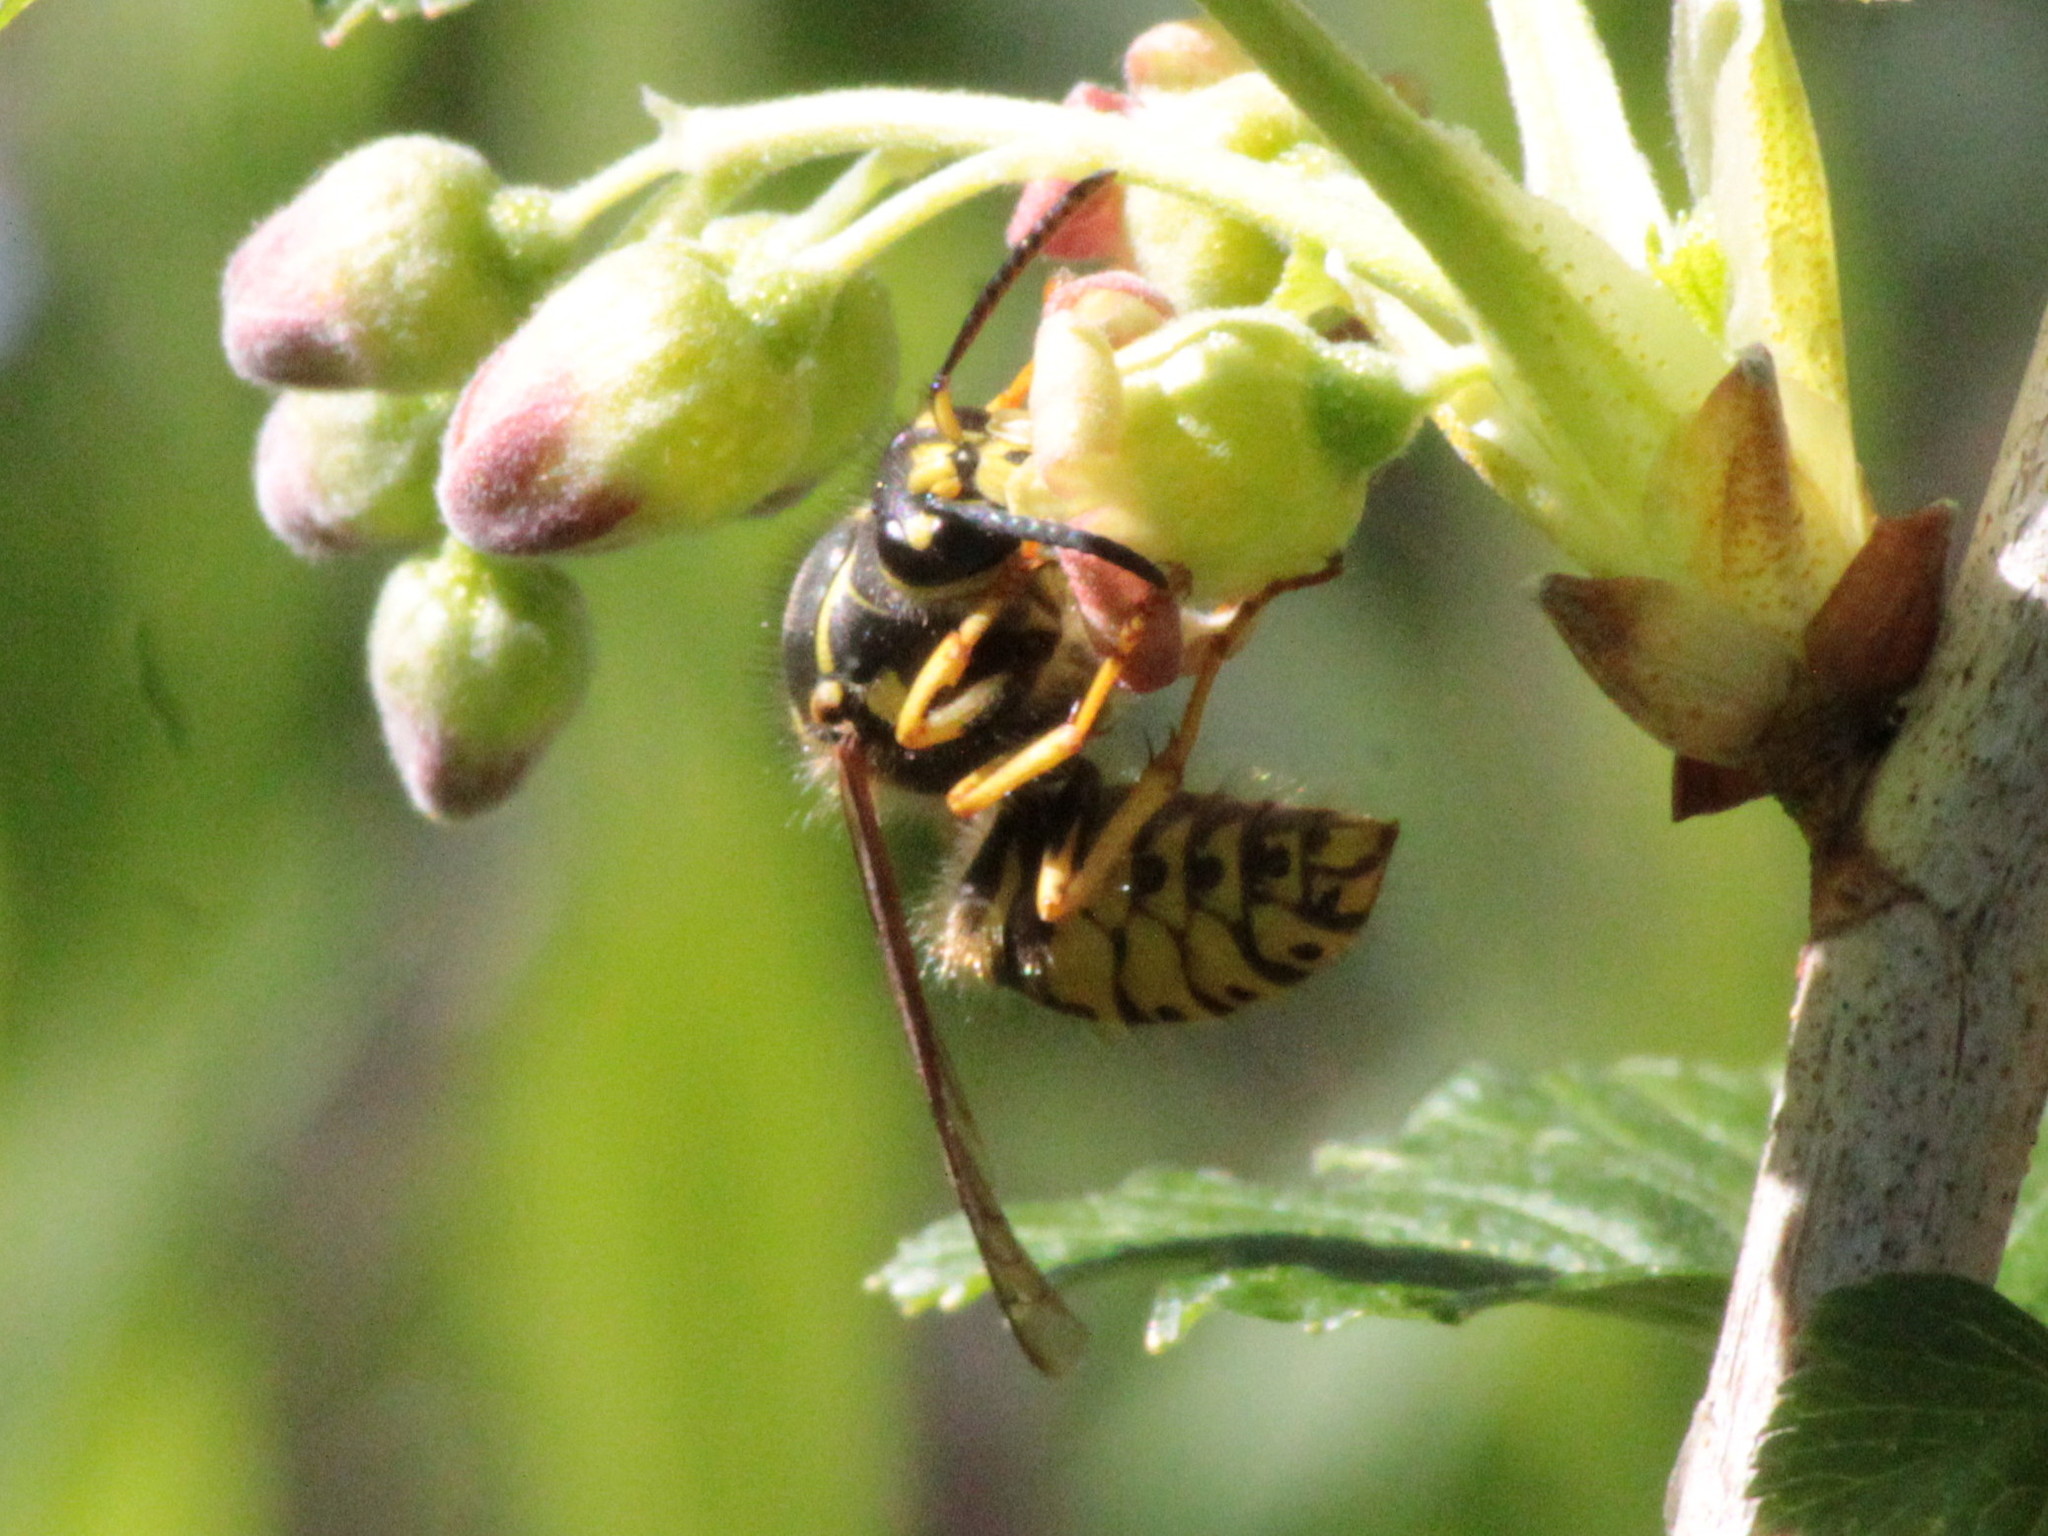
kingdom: Animalia
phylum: Arthropoda
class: Insecta
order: Hymenoptera
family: Vespidae
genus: Dolichovespula
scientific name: Dolichovespula arenaria
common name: Aerial yellowjacket
